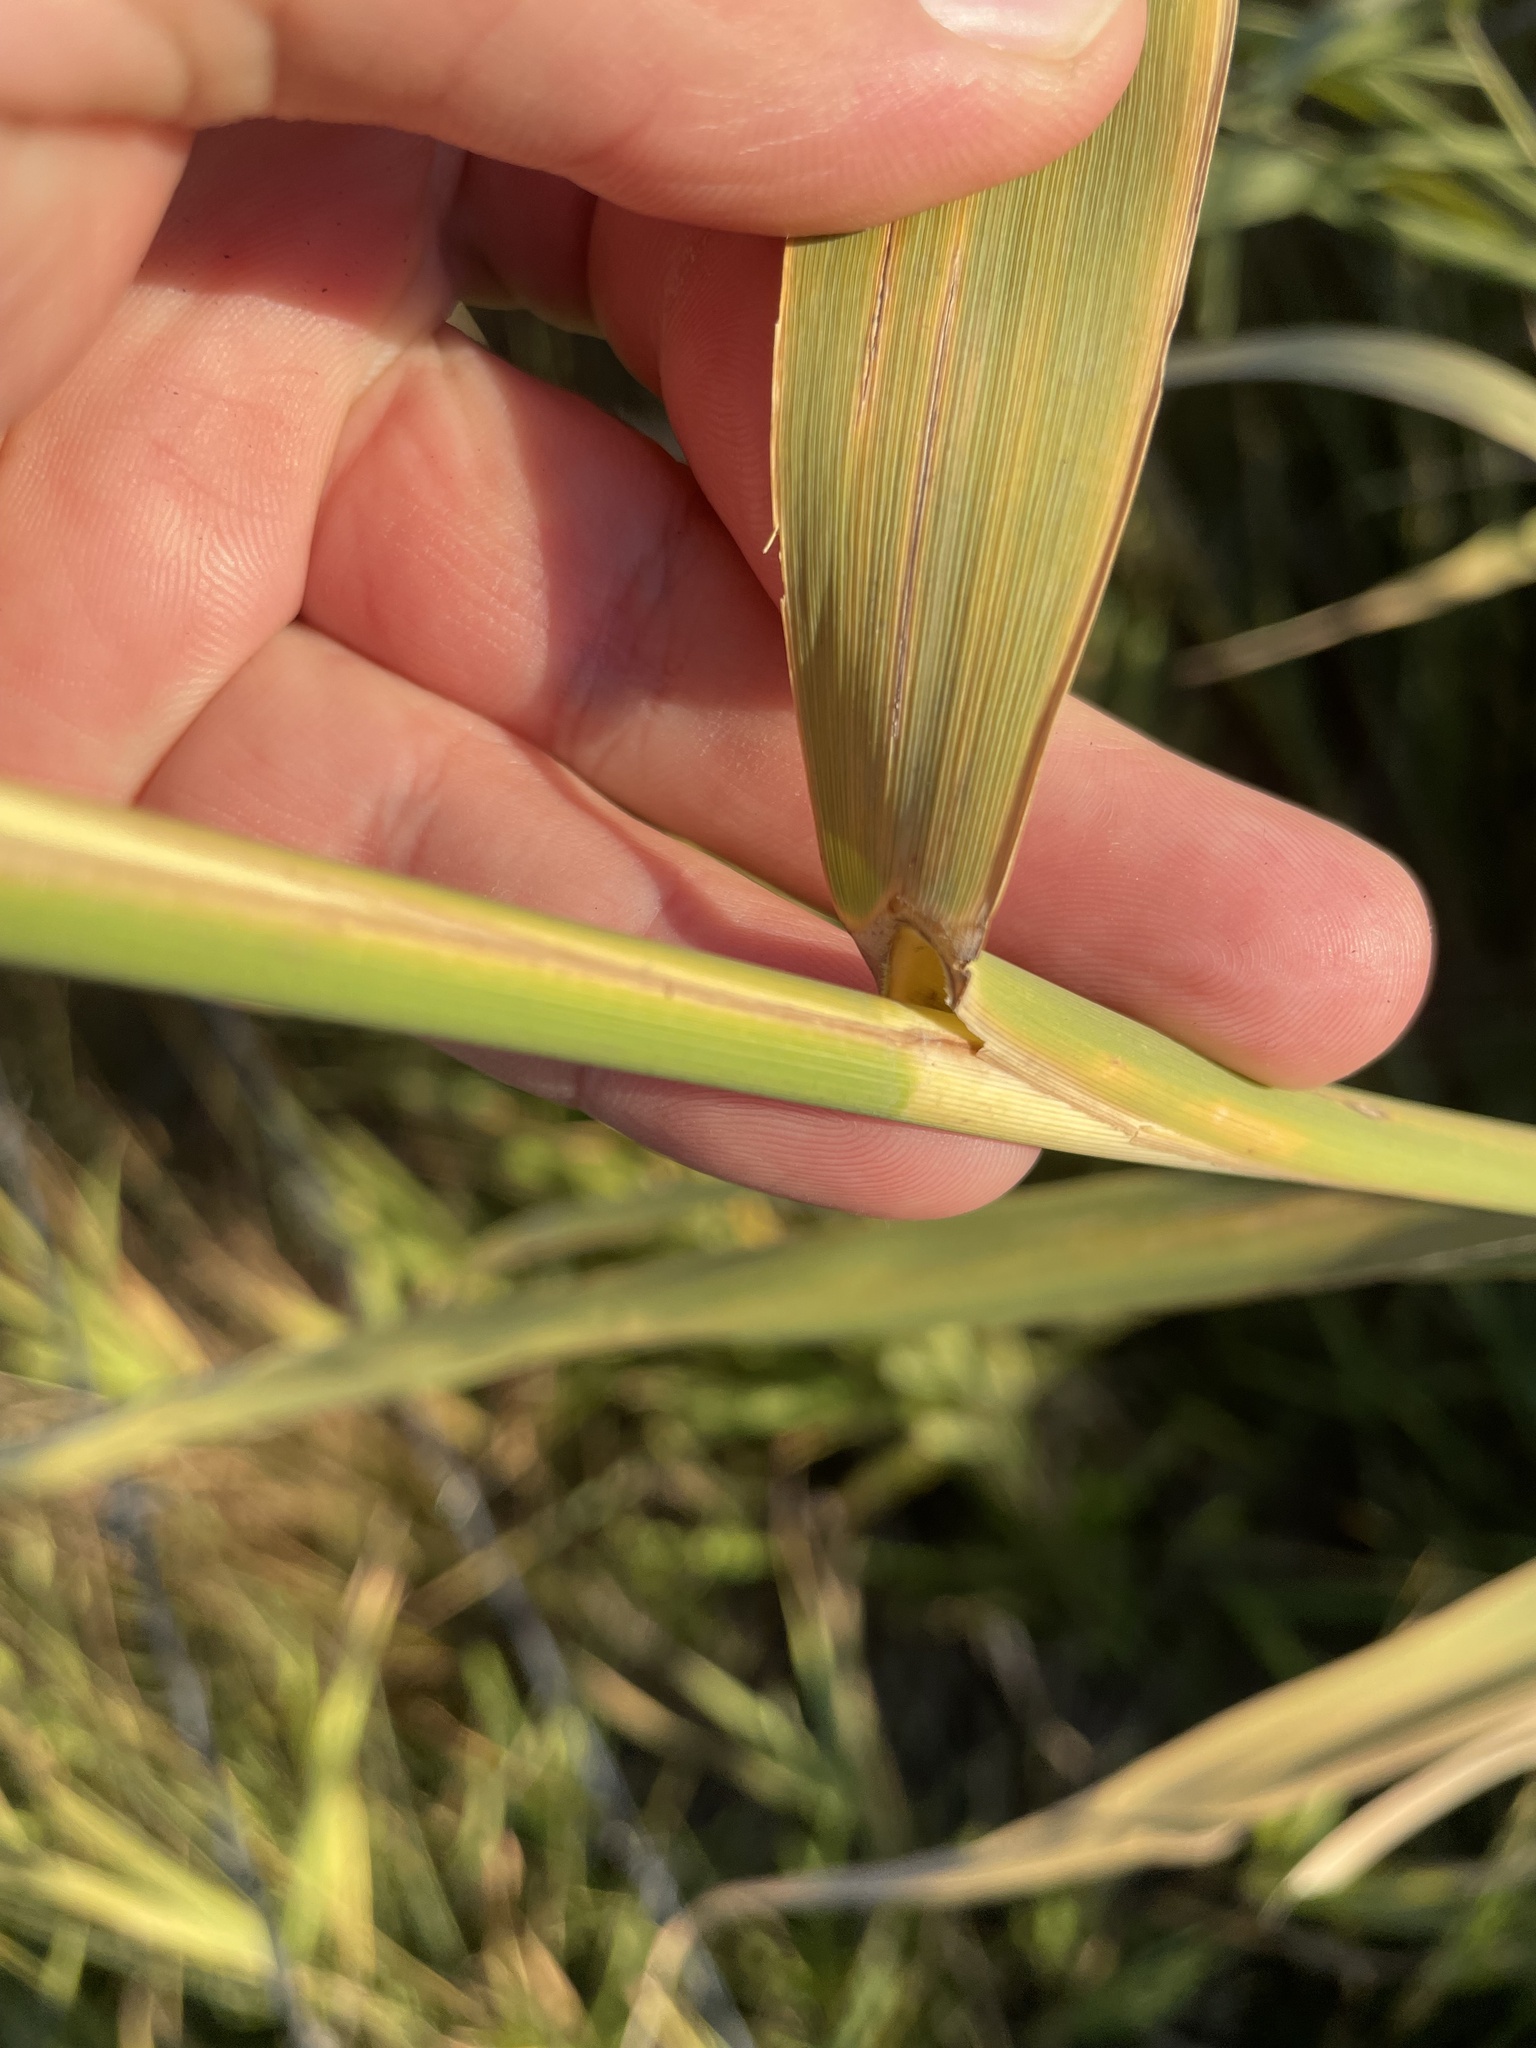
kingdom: Plantae
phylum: Tracheophyta
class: Liliopsida
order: Poales
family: Poaceae
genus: Phragmites
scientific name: Phragmites australis
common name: Common reed
